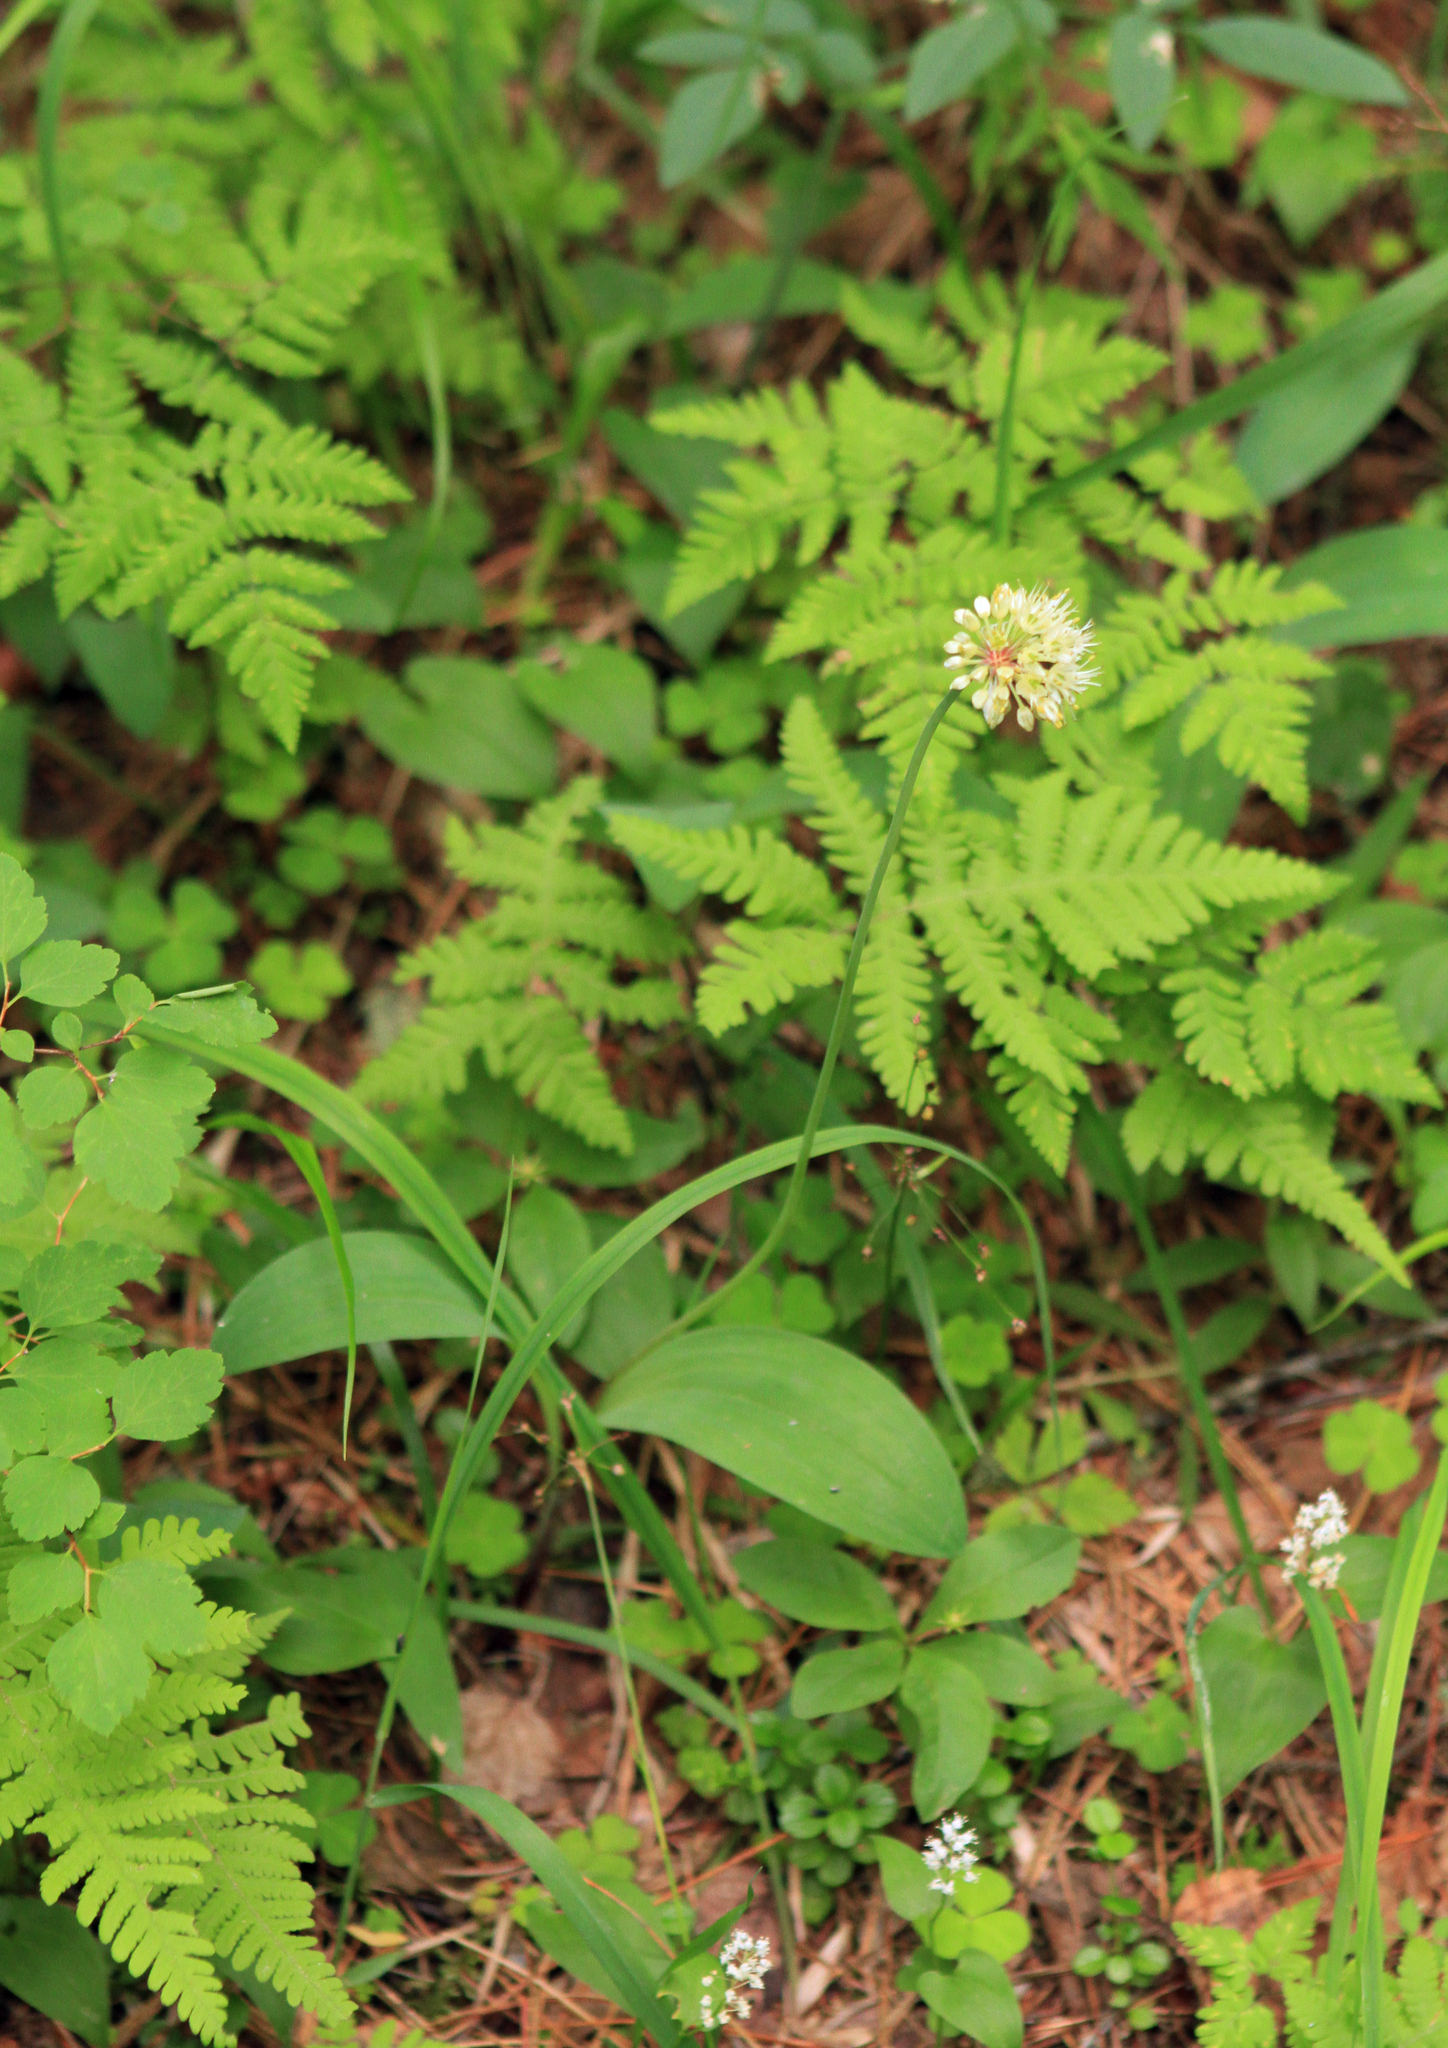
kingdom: Plantae
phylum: Tracheophyta
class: Liliopsida
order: Asparagales
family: Amaryllidaceae
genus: Allium
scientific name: Allium microdictyon
